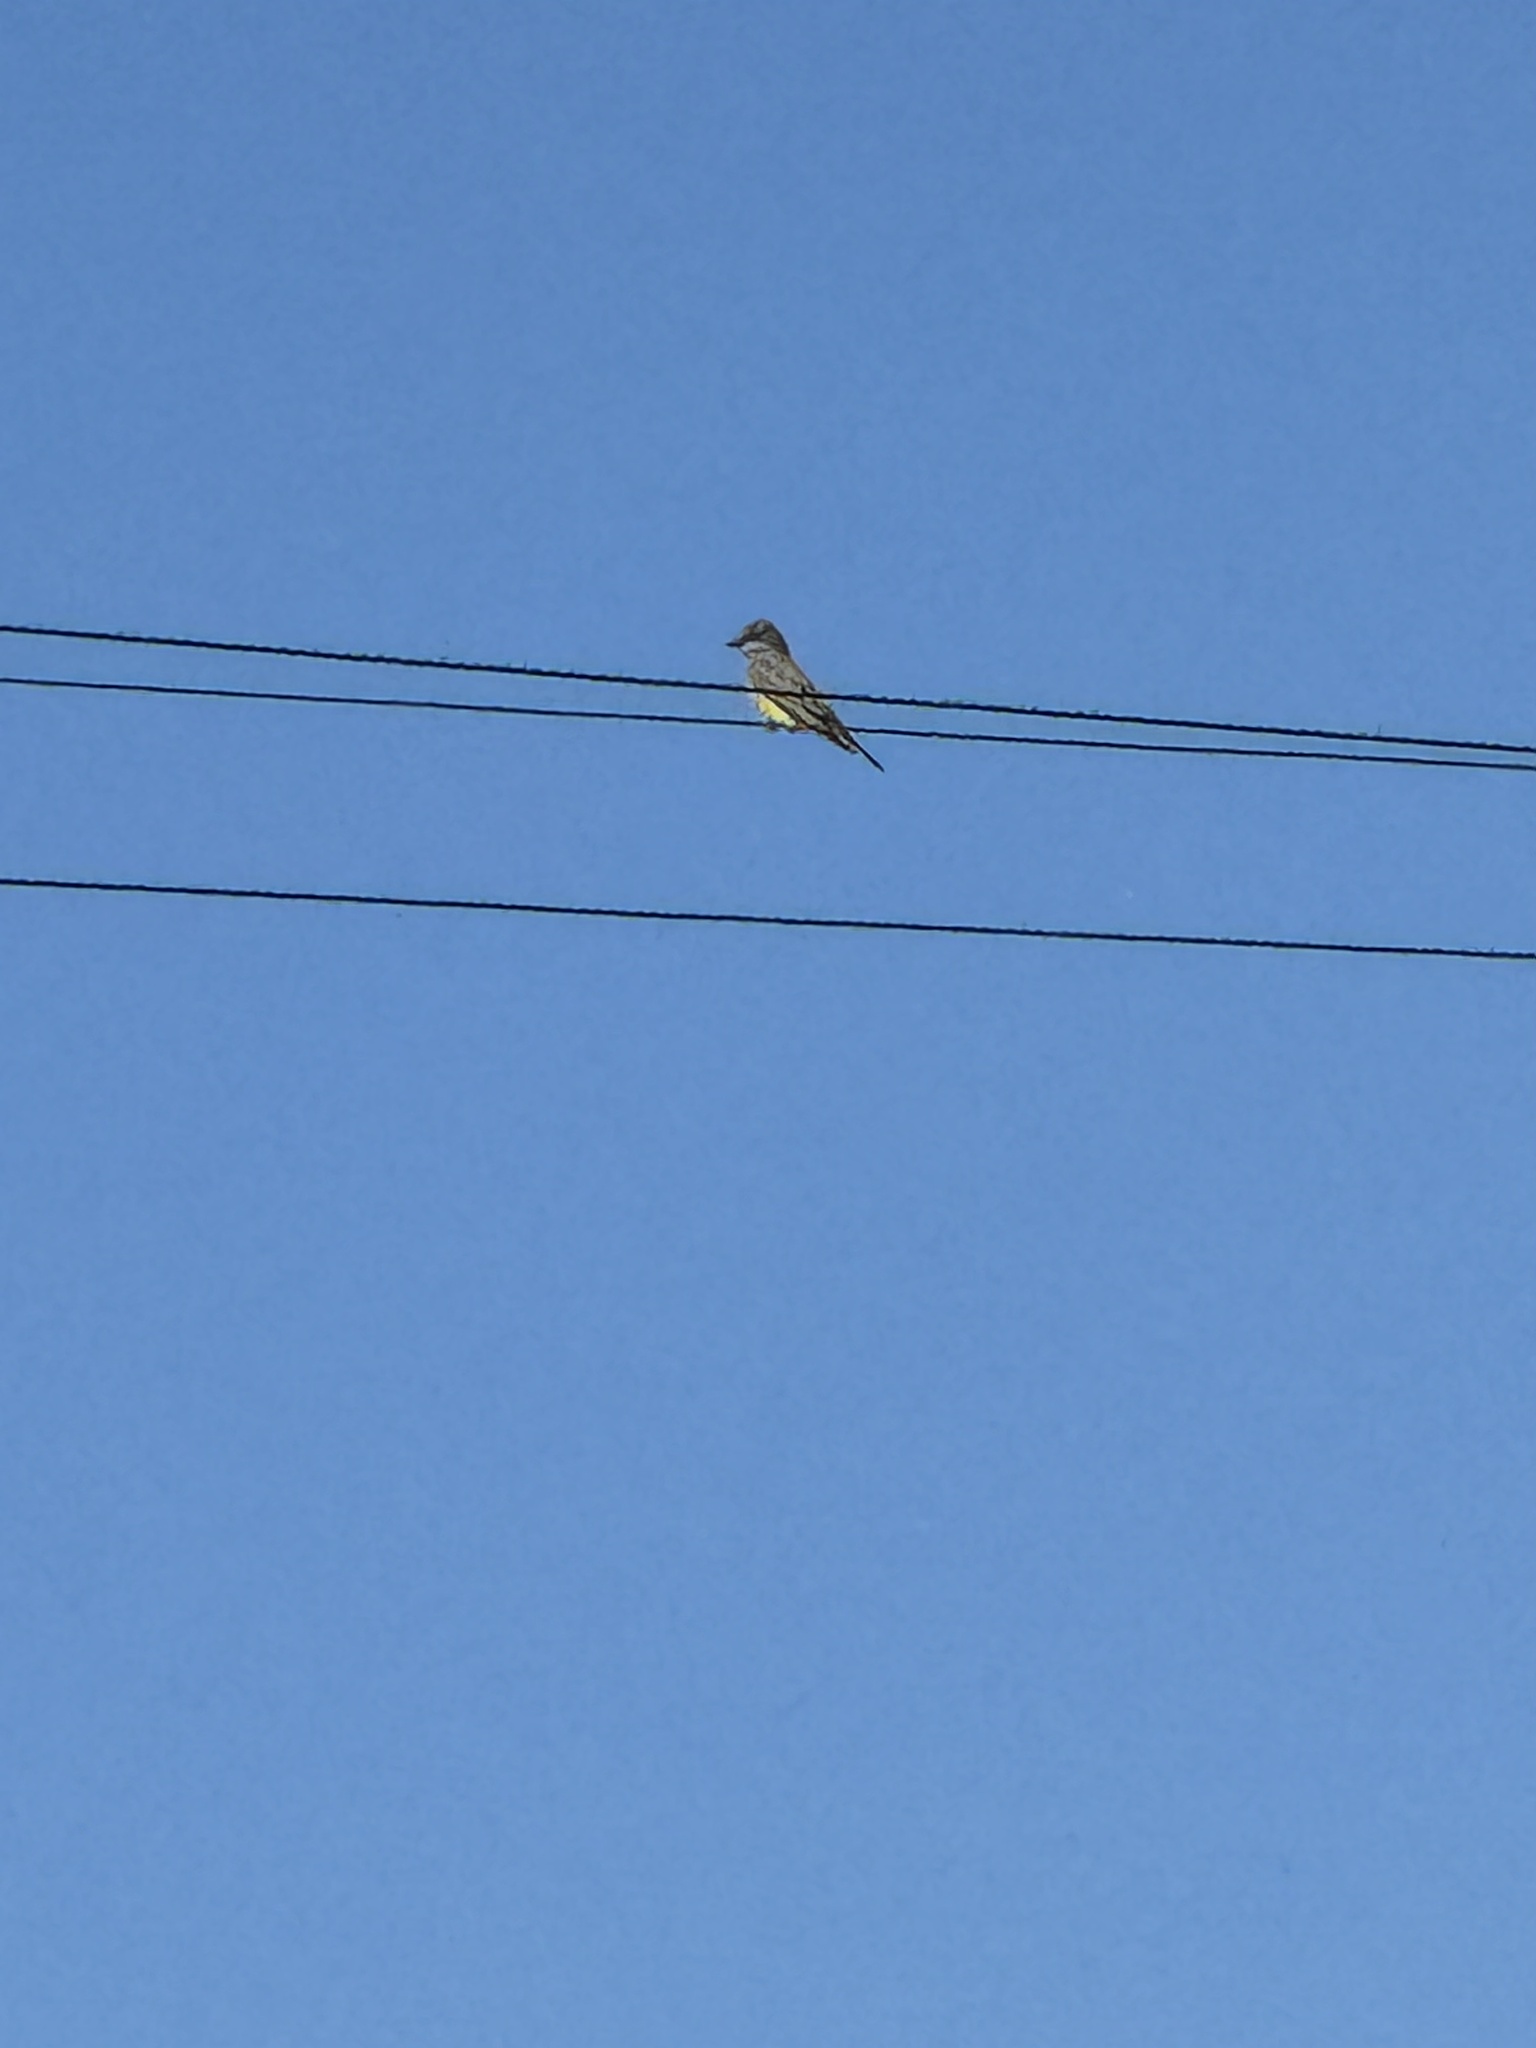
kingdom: Animalia
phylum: Chordata
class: Aves
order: Passeriformes
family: Tyrannidae
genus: Tyrannus
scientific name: Tyrannus vociferans
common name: Cassin's kingbird
